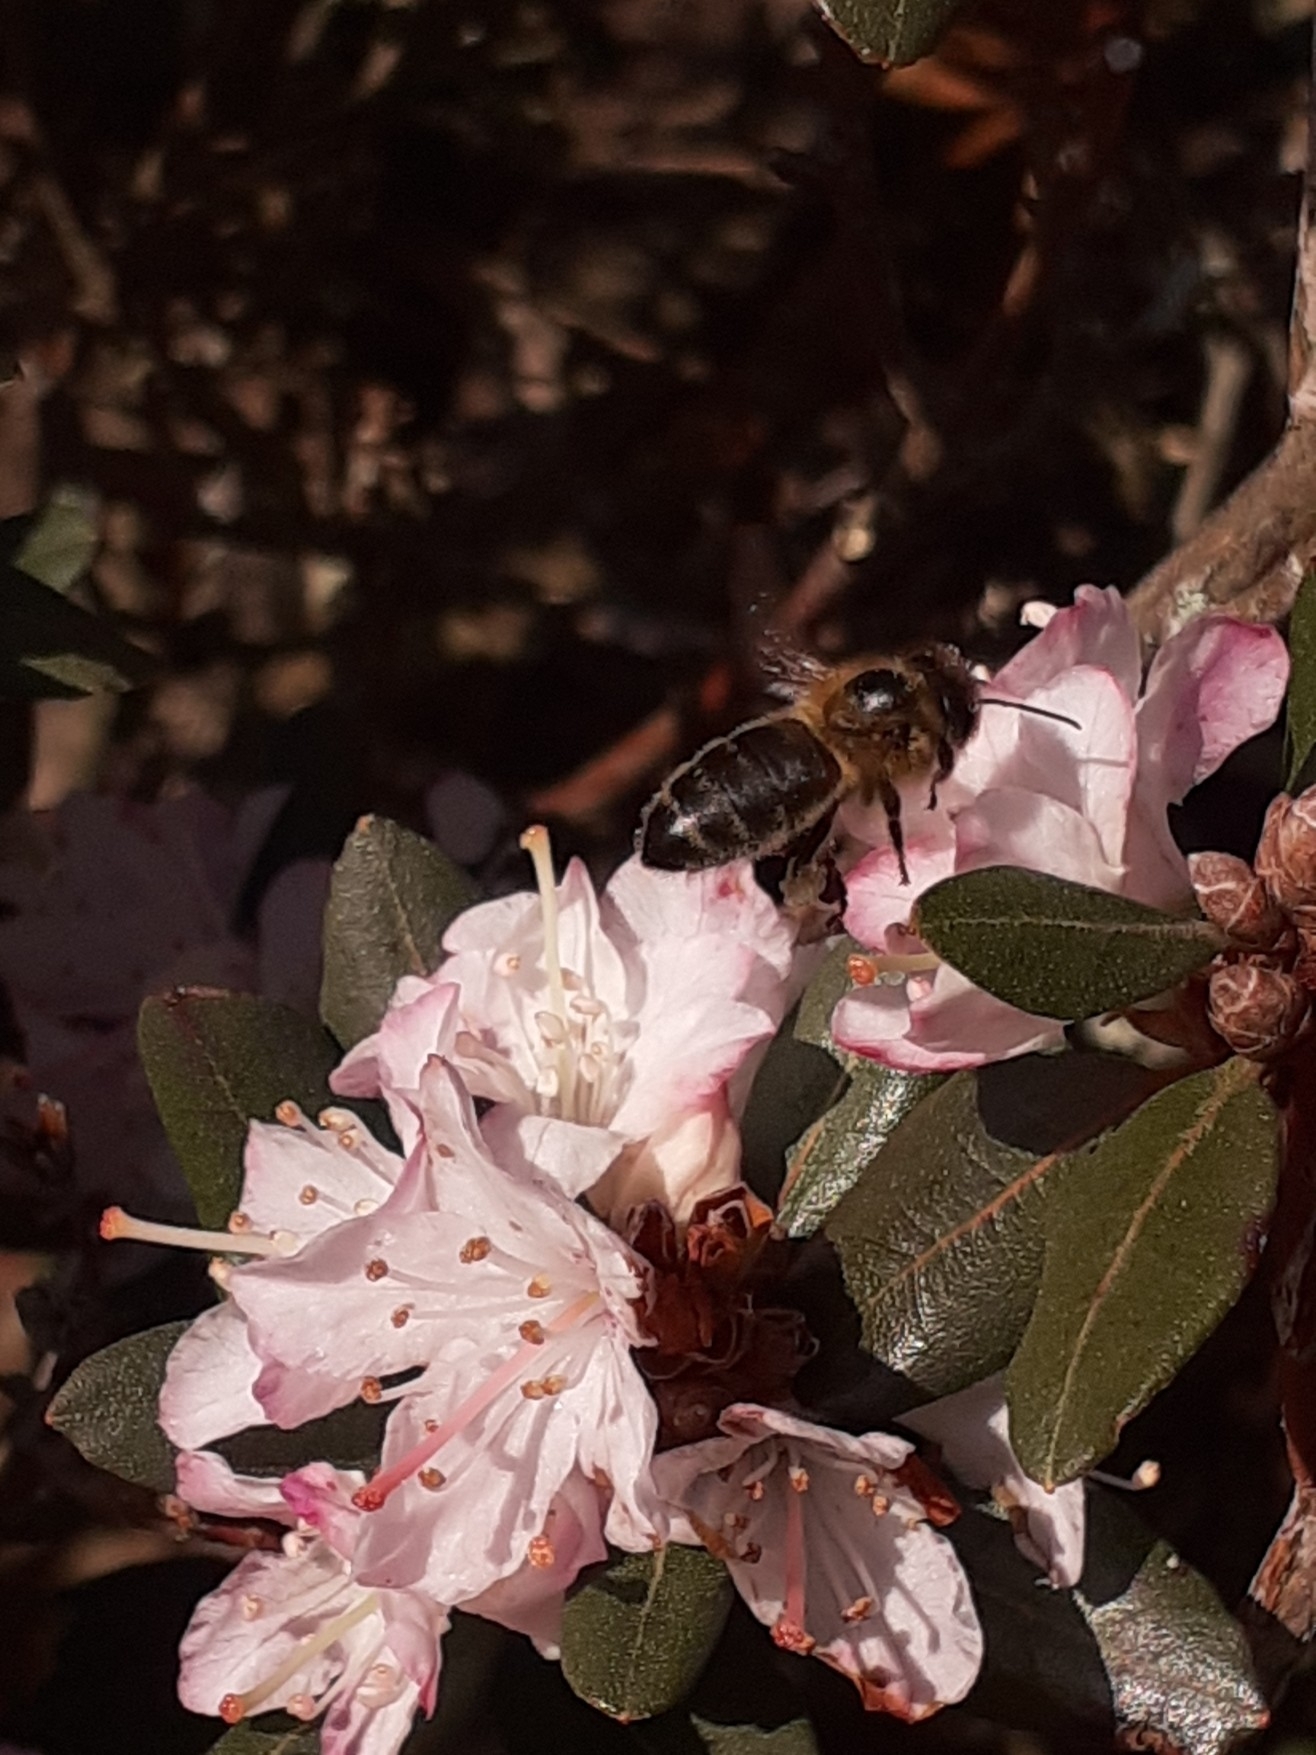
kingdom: Animalia
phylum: Arthropoda
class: Insecta
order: Hymenoptera
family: Apidae
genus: Apis
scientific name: Apis mellifera
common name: Honey bee
